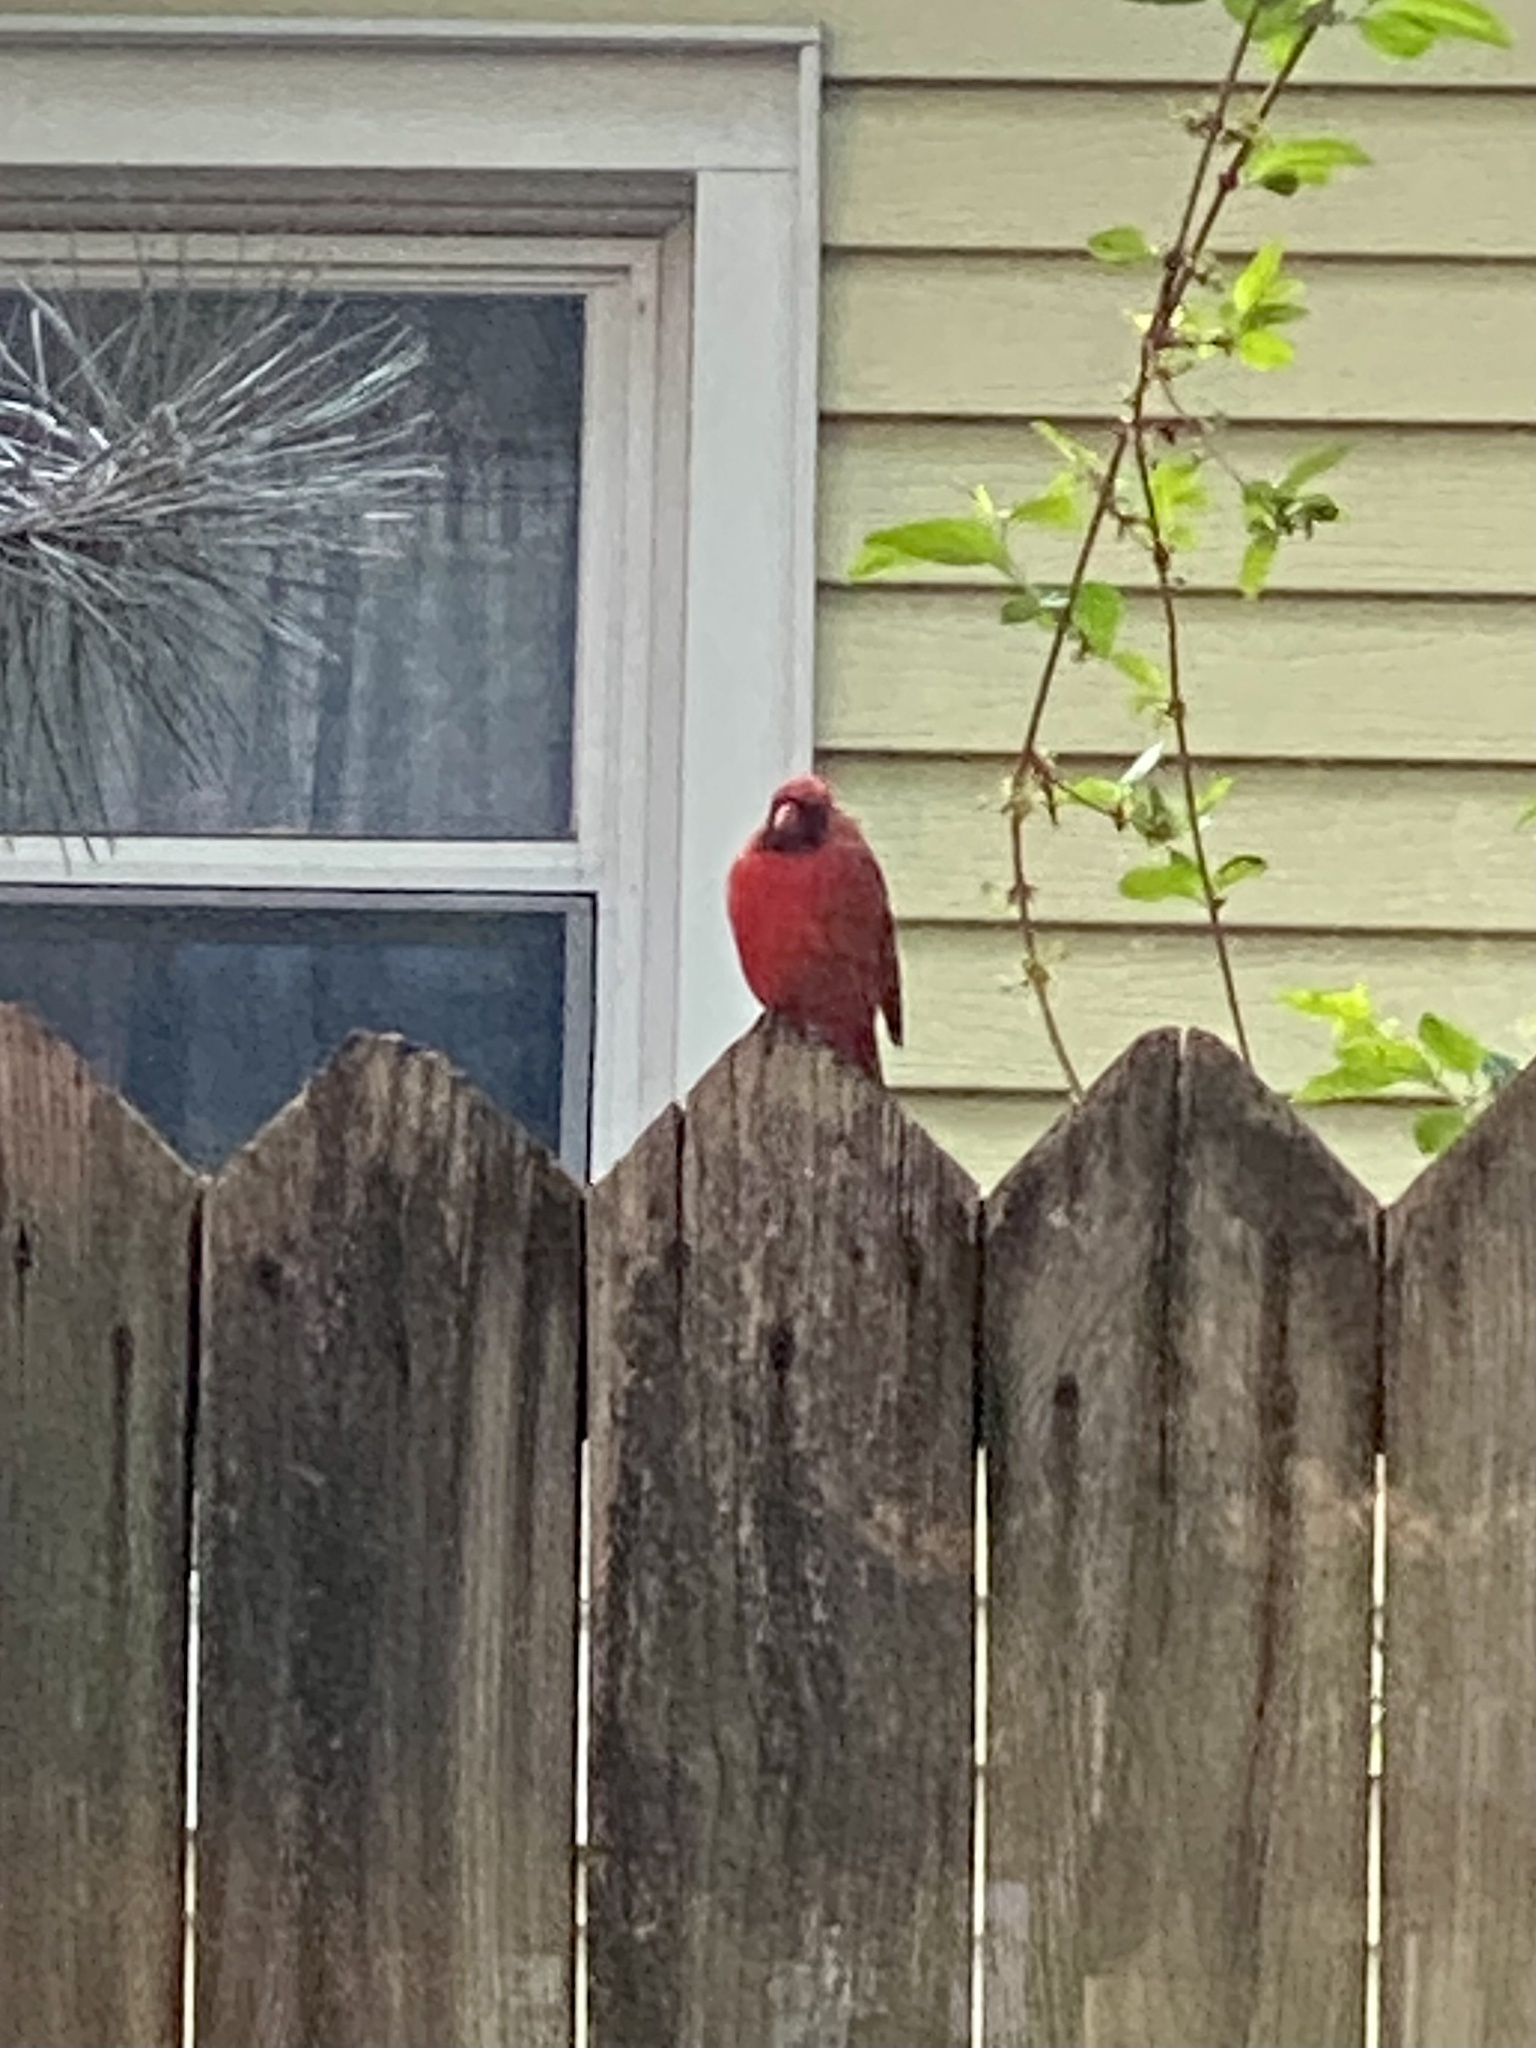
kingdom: Animalia
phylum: Chordata
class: Aves
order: Passeriformes
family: Cardinalidae
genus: Cardinalis
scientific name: Cardinalis cardinalis
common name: Northern cardinal
